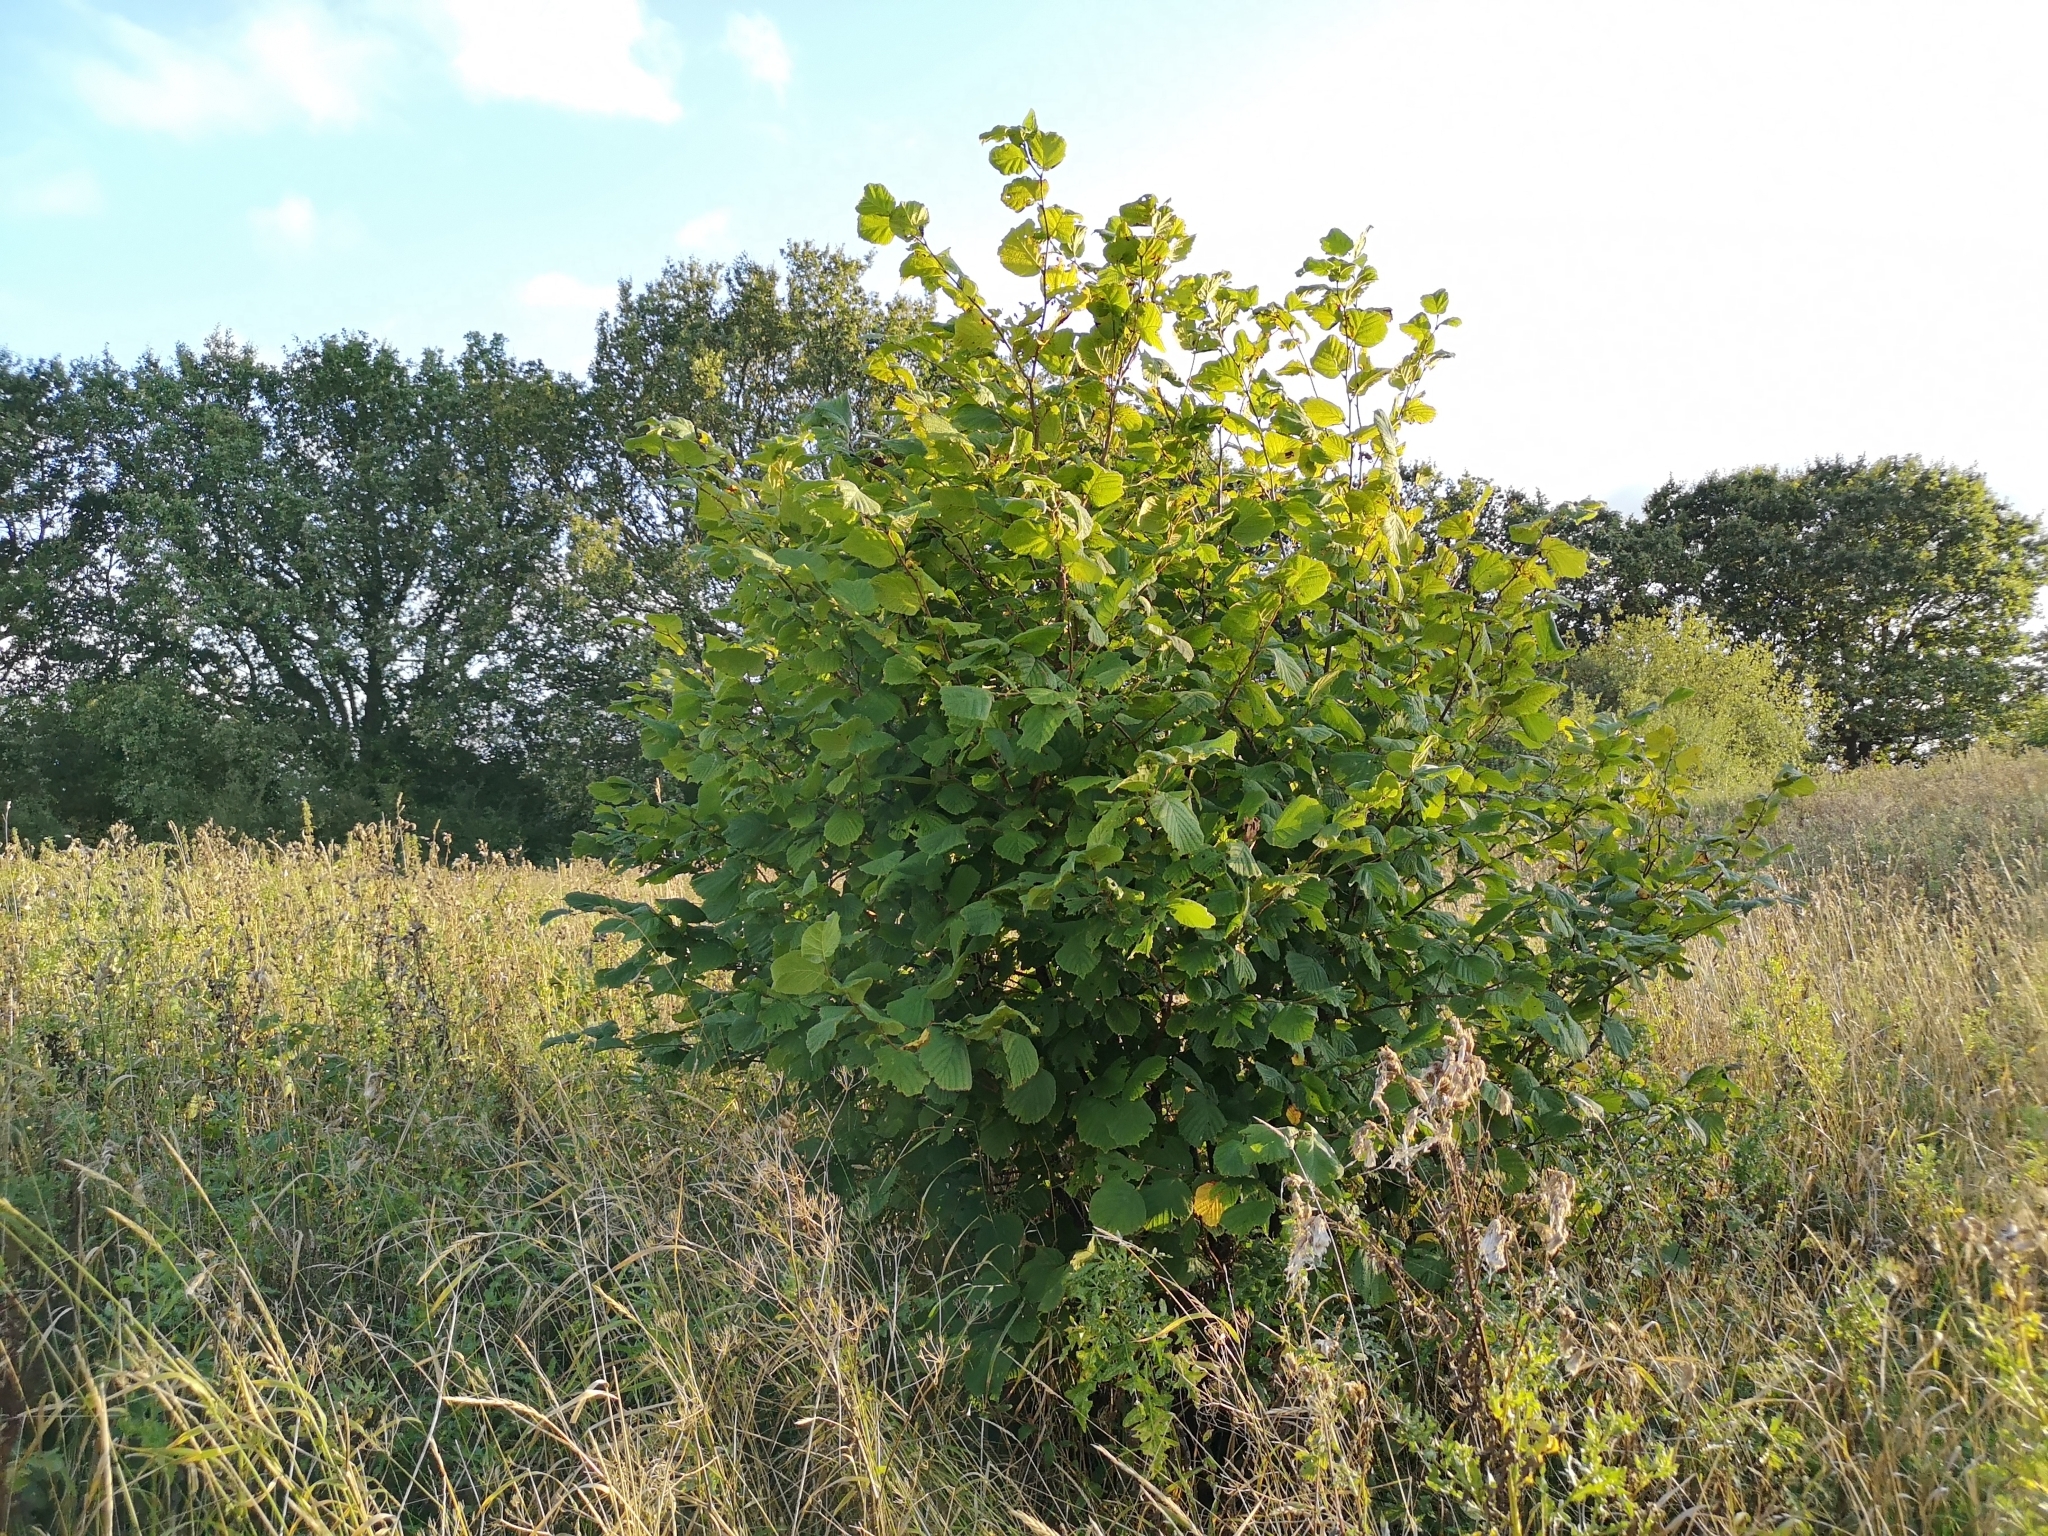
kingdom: Plantae
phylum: Tracheophyta
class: Magnoliopsida
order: Fagales
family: Betulaceae
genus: Corylus
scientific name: Corylus avellana
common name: European hazel
